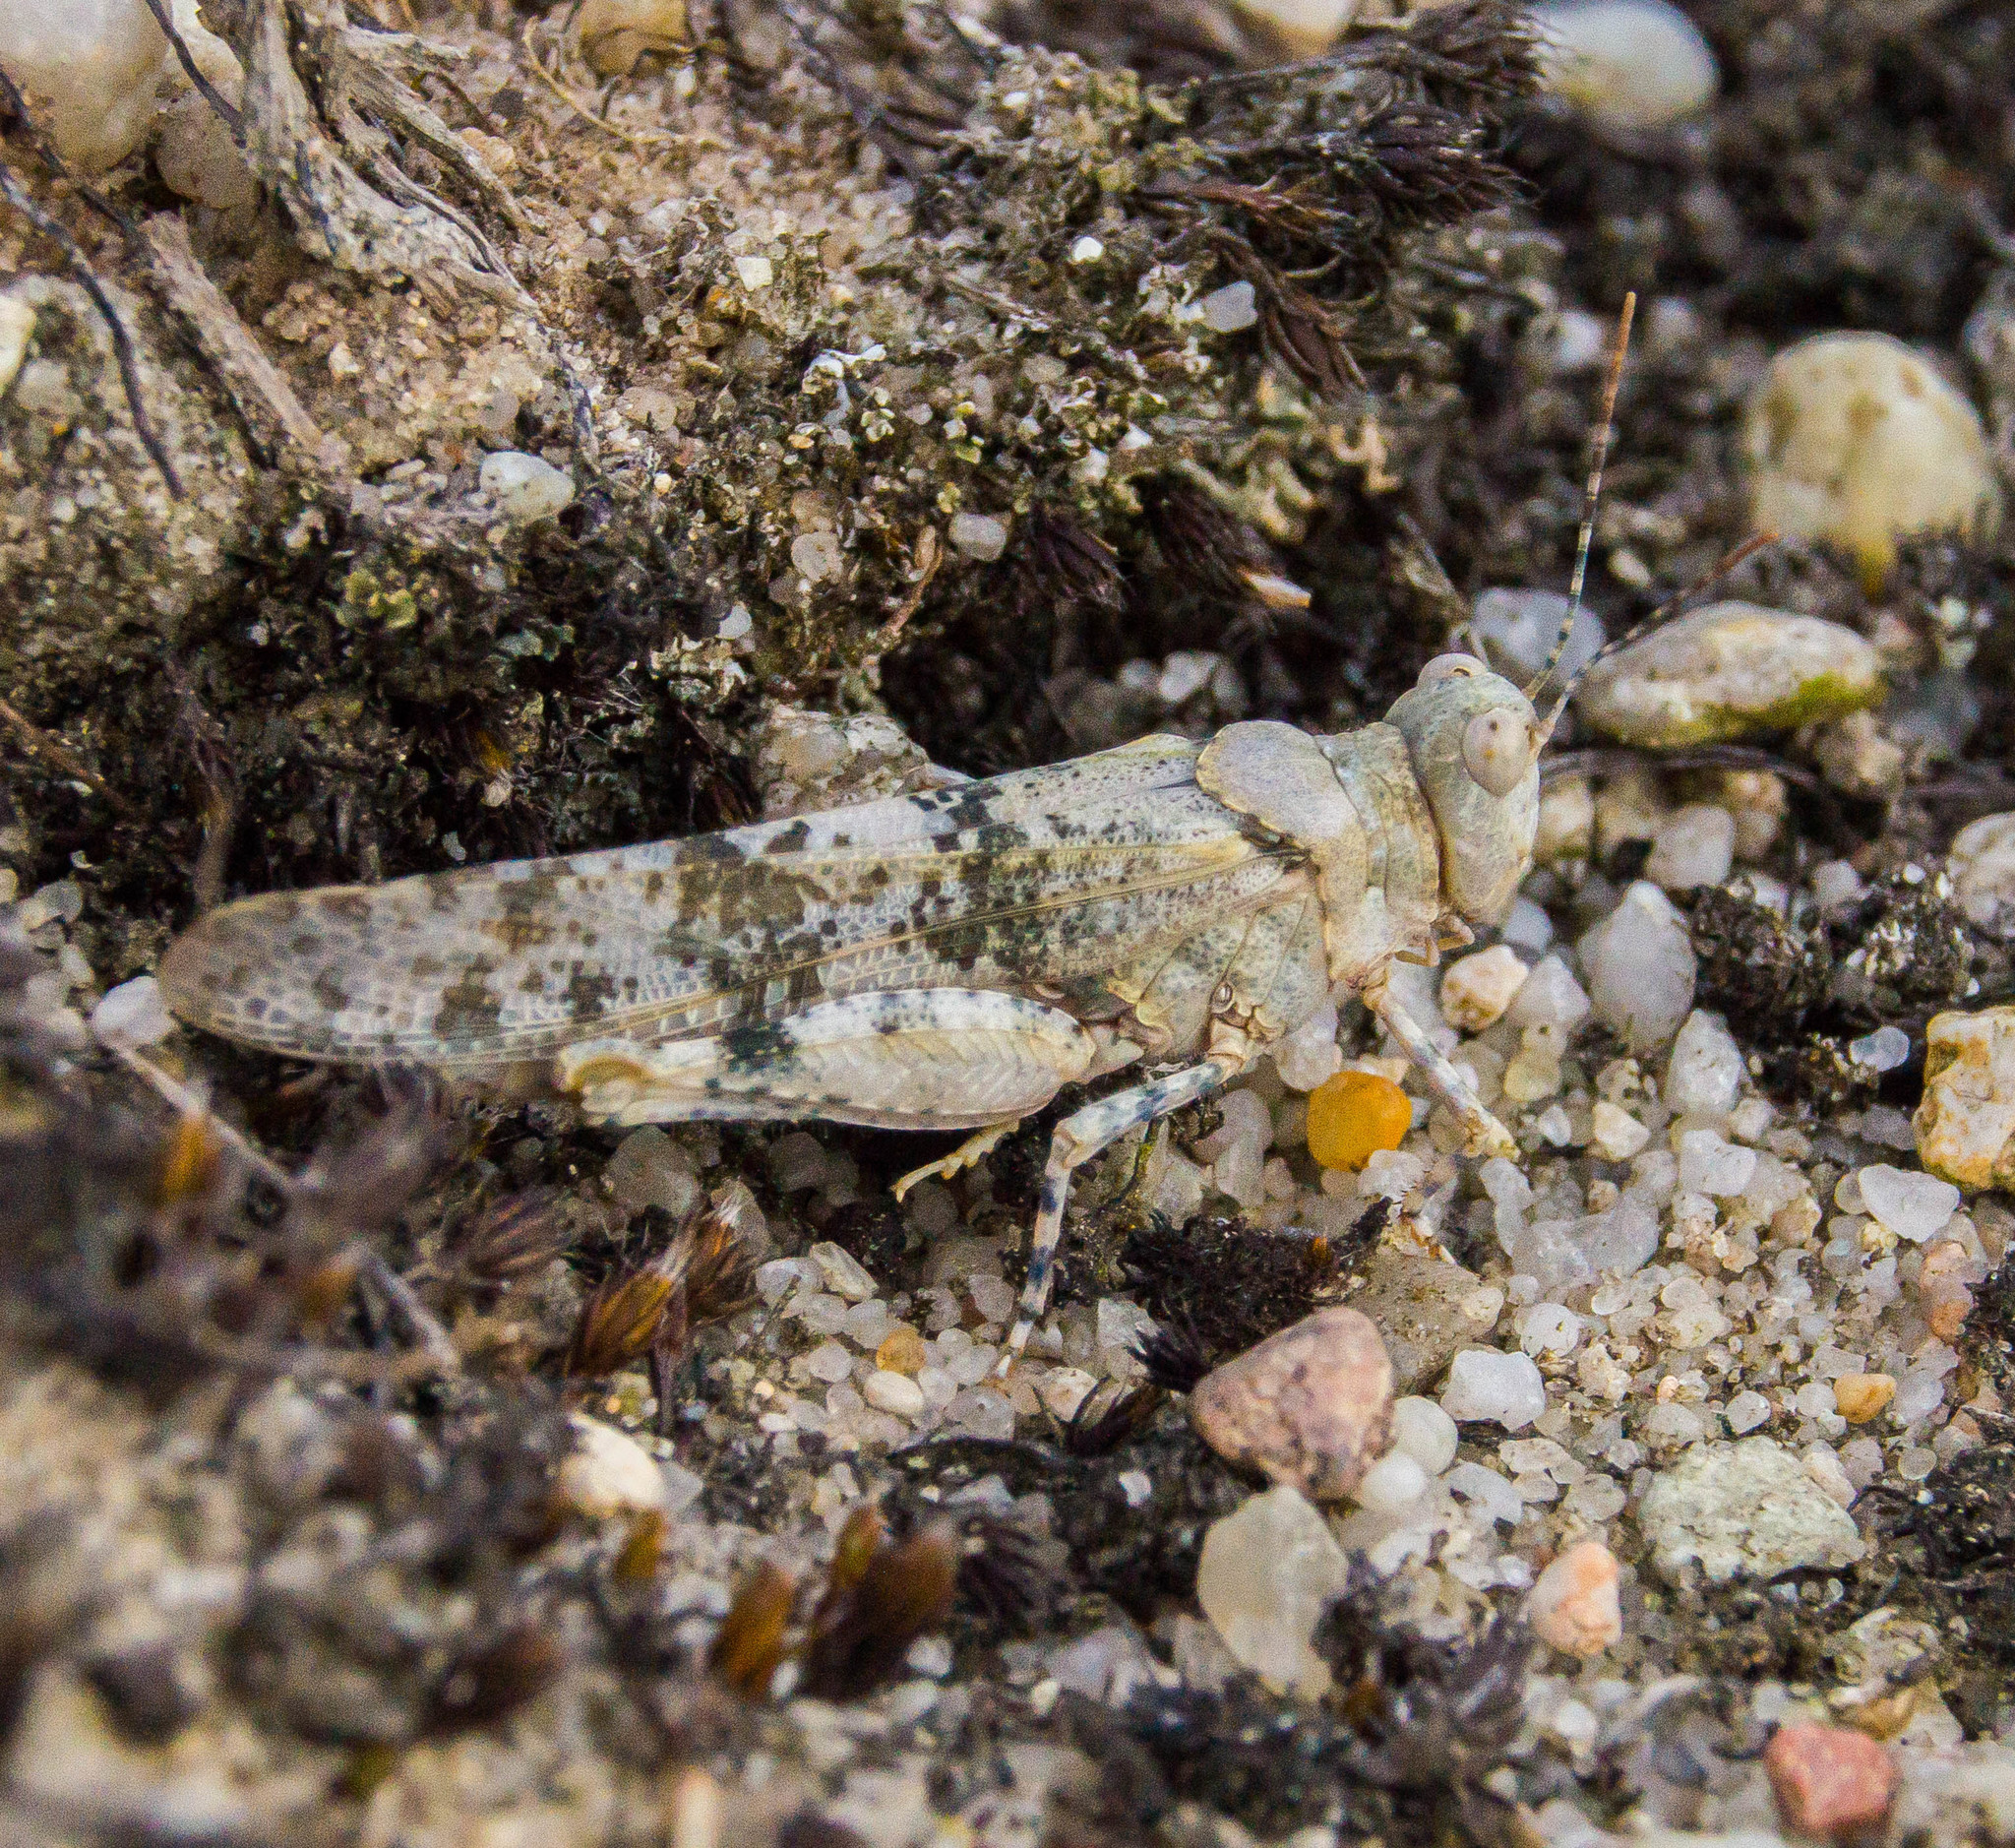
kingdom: Animalia
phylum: Arthropoda
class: Insecta
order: Orthoptera
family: Acrididae
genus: Sphingonotus
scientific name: Sphingonotus caerulans
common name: Blue-winged locust
